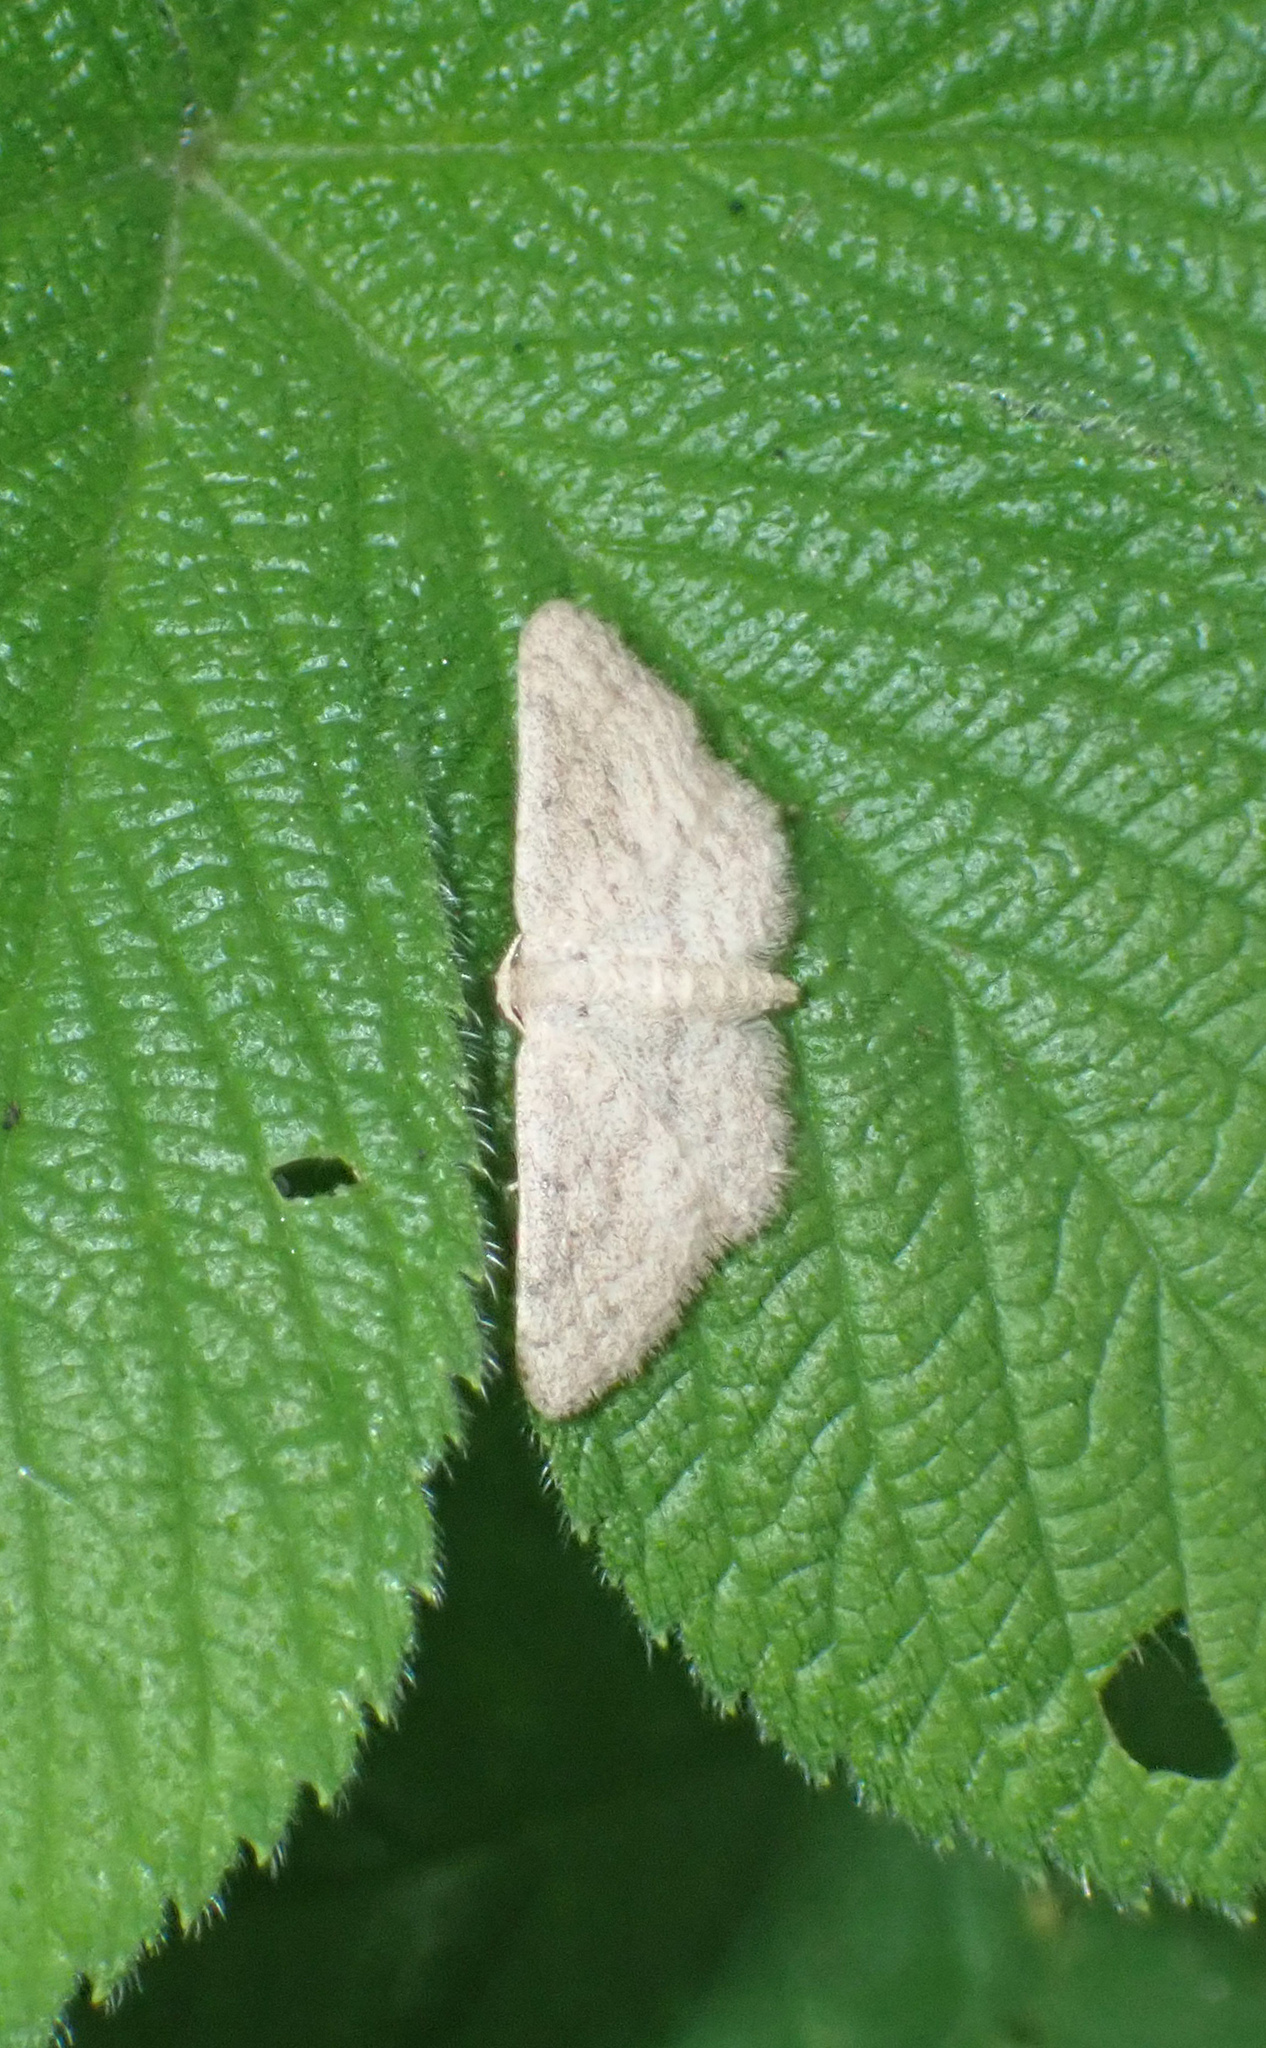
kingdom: Animalia
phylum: Arthropoda
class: Insecta
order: Lepidoptera
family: Geometridae
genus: Lobocleta
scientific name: Lobocleta ossularia
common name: Drab brown wave
